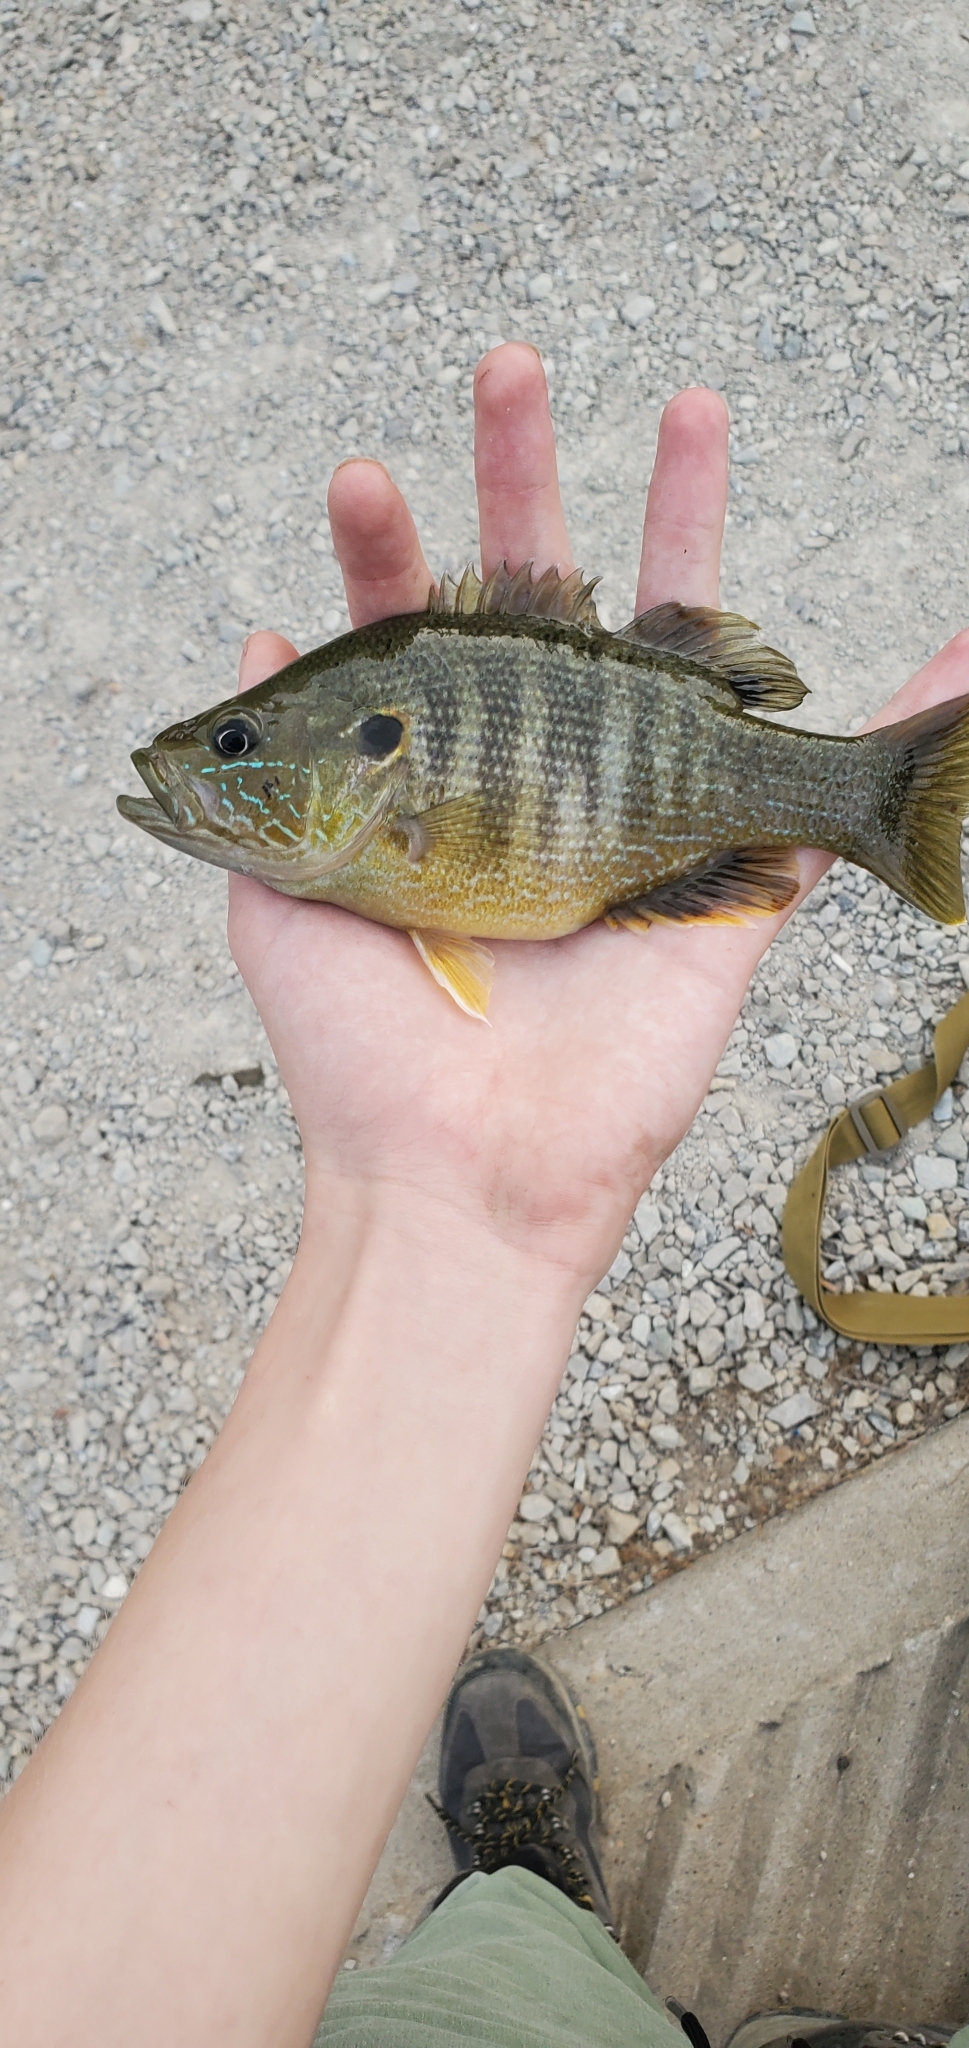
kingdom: Animalia
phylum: Chordata
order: Perciformes
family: Centrarchidae
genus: Lepomis
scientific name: Lepomis cyanellus
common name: Green sunfish
